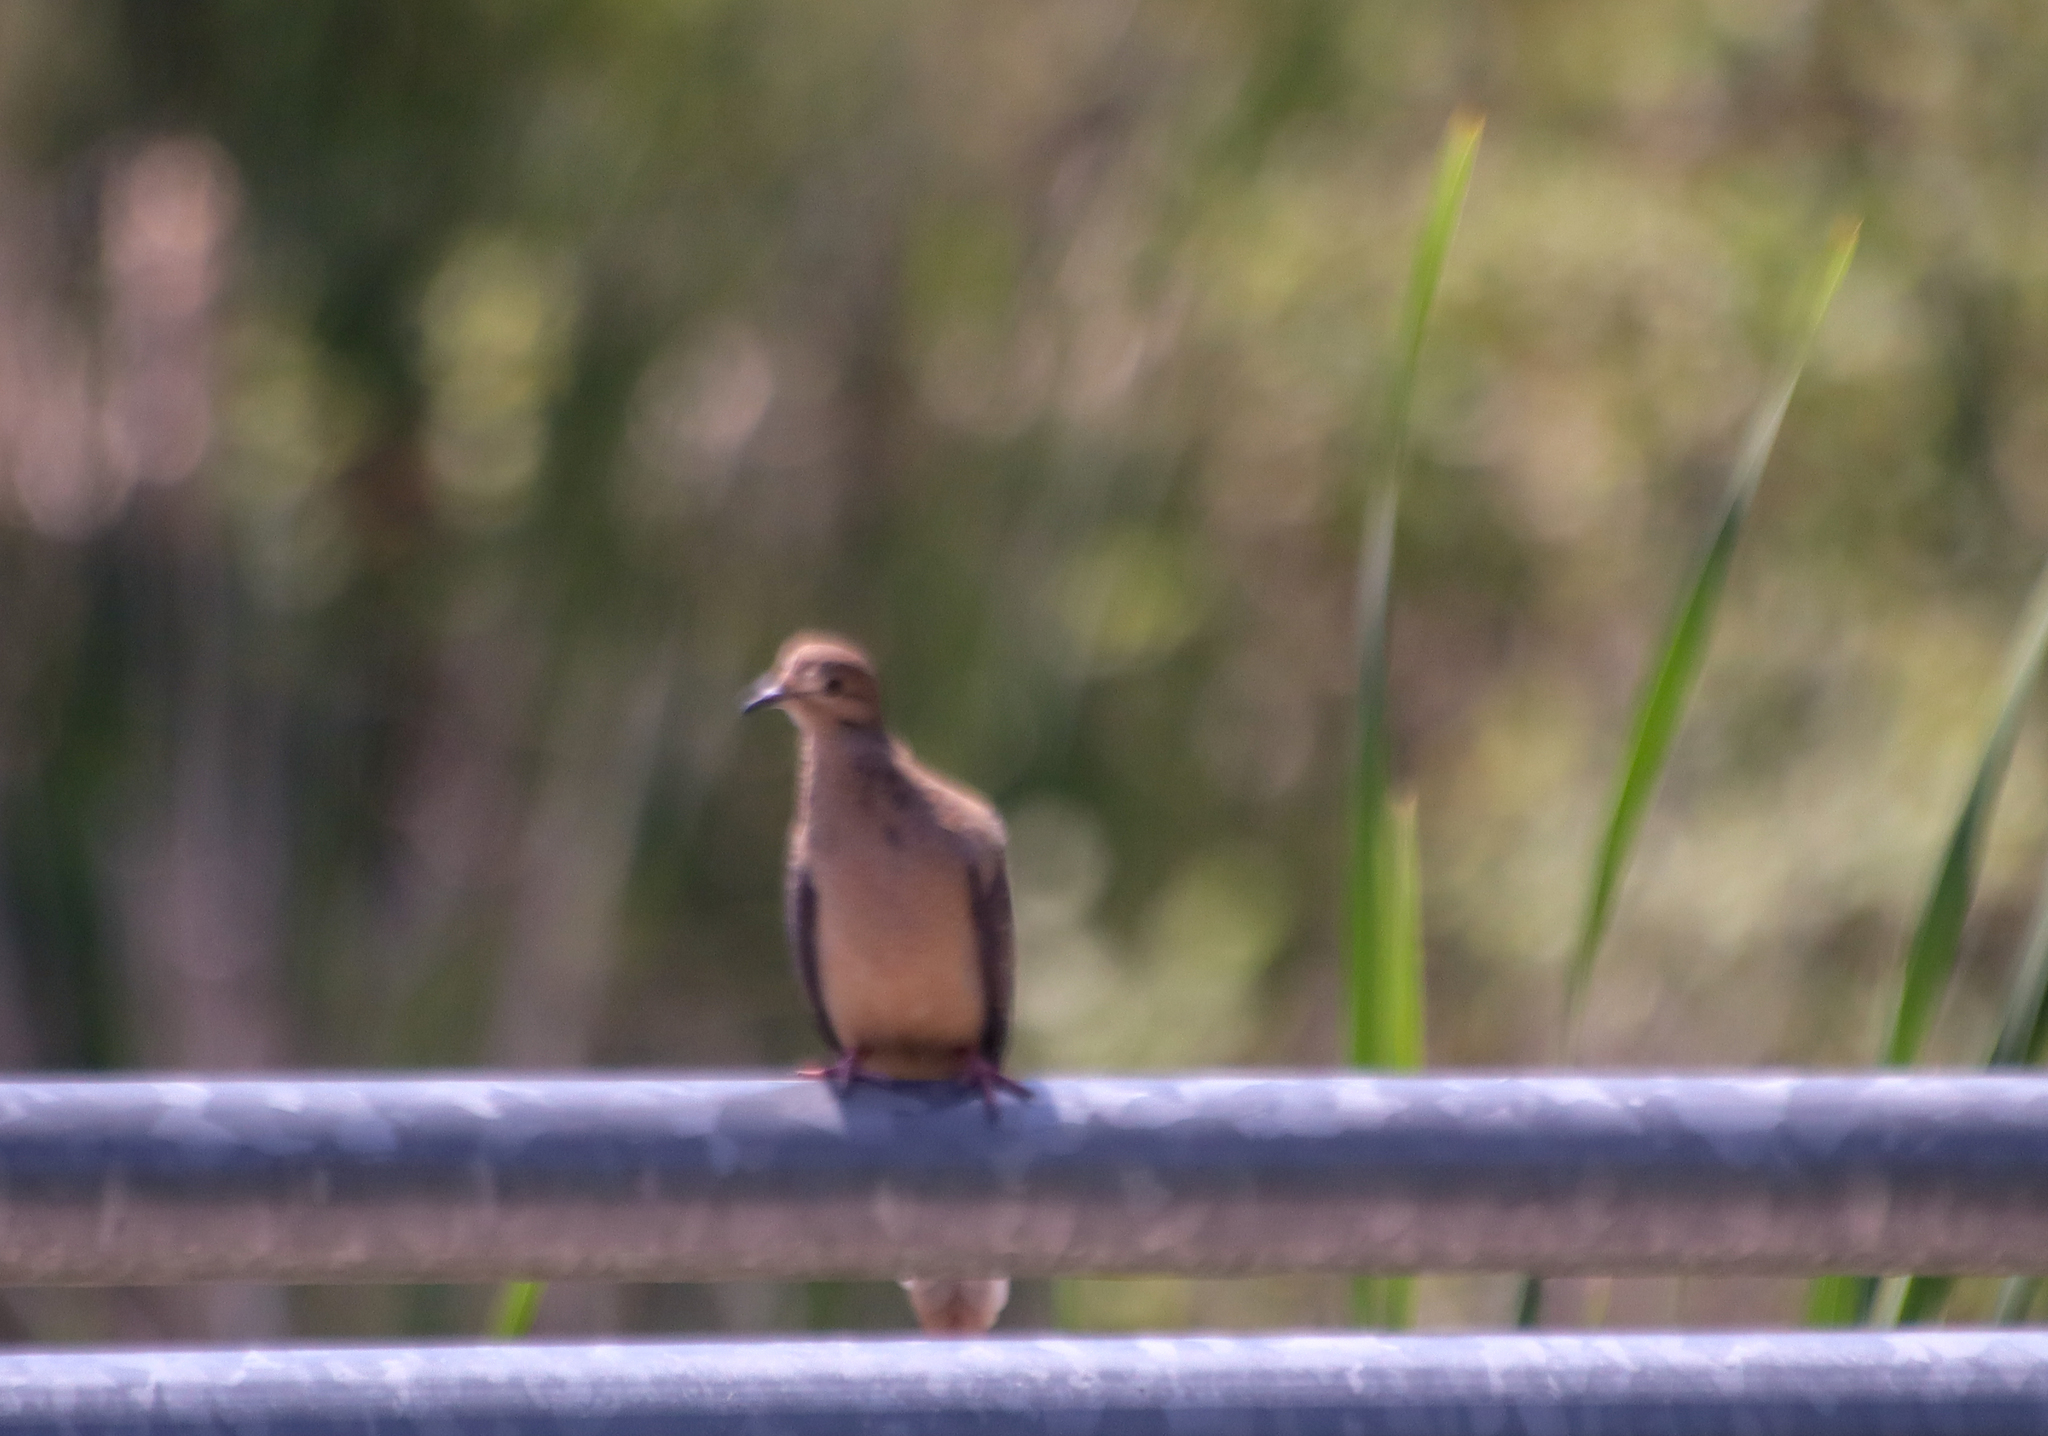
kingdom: Animalia
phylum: Chordata
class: Aves
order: Columbiformes
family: Columbidae
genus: Zenaida
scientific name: Zenaida macroura
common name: Mourning dove
